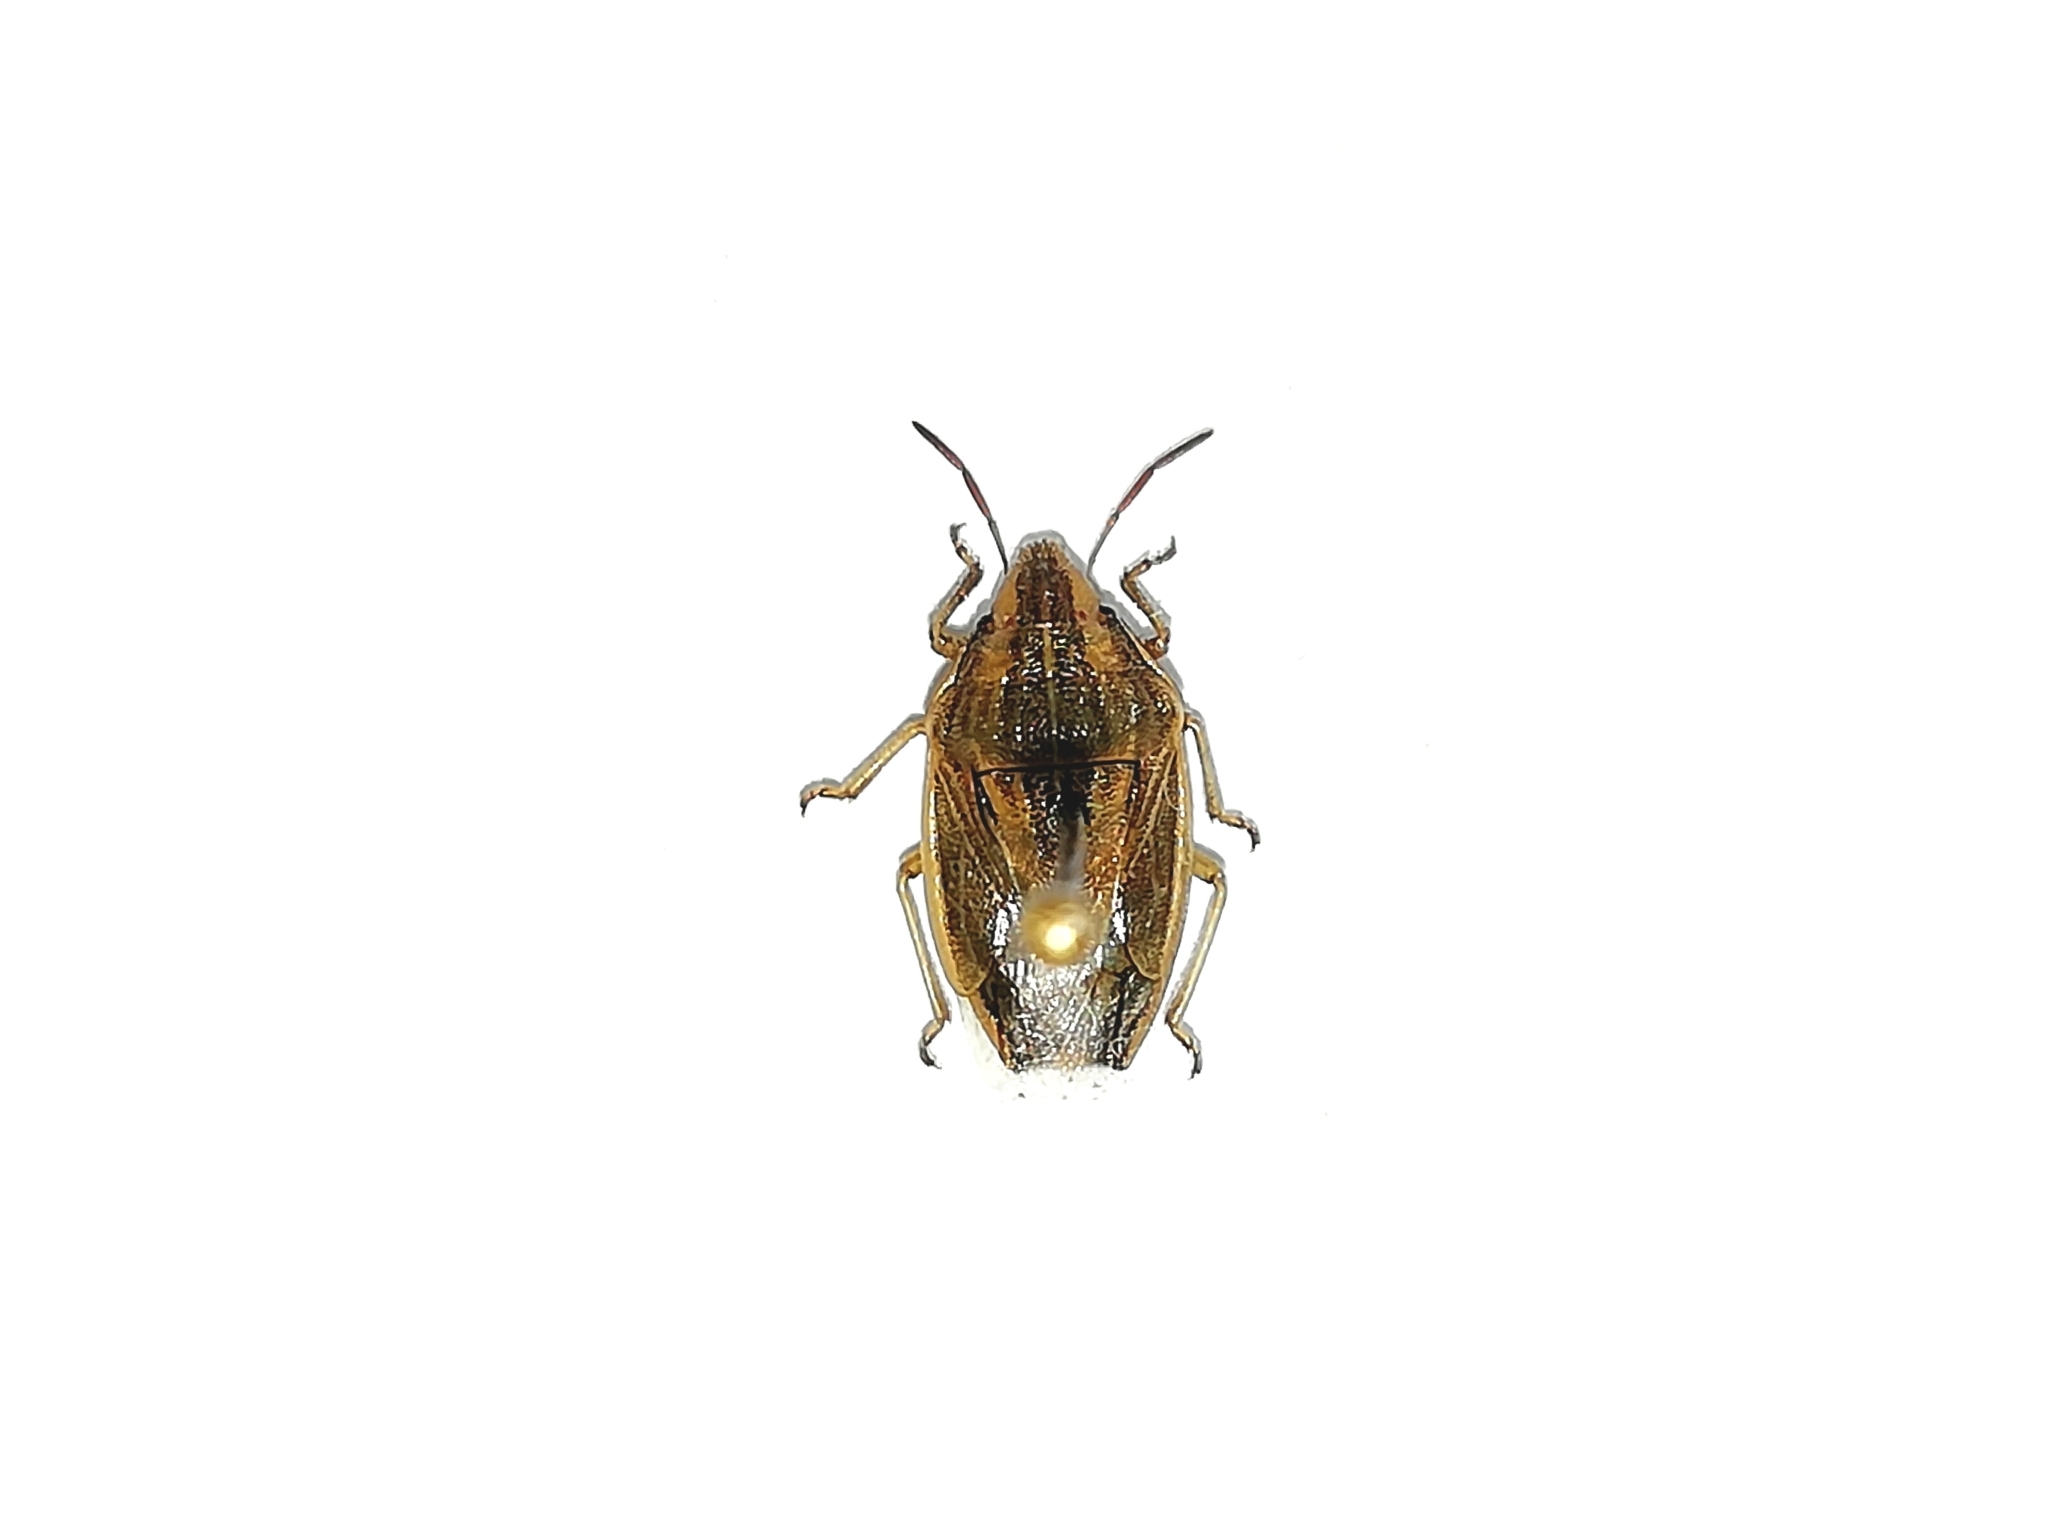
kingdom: Animalia
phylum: Arthropoda
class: Insecta
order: Hemiptera
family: Pentatomidae
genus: Aelia
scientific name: Aelia acuminata
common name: Bishop's mitre
